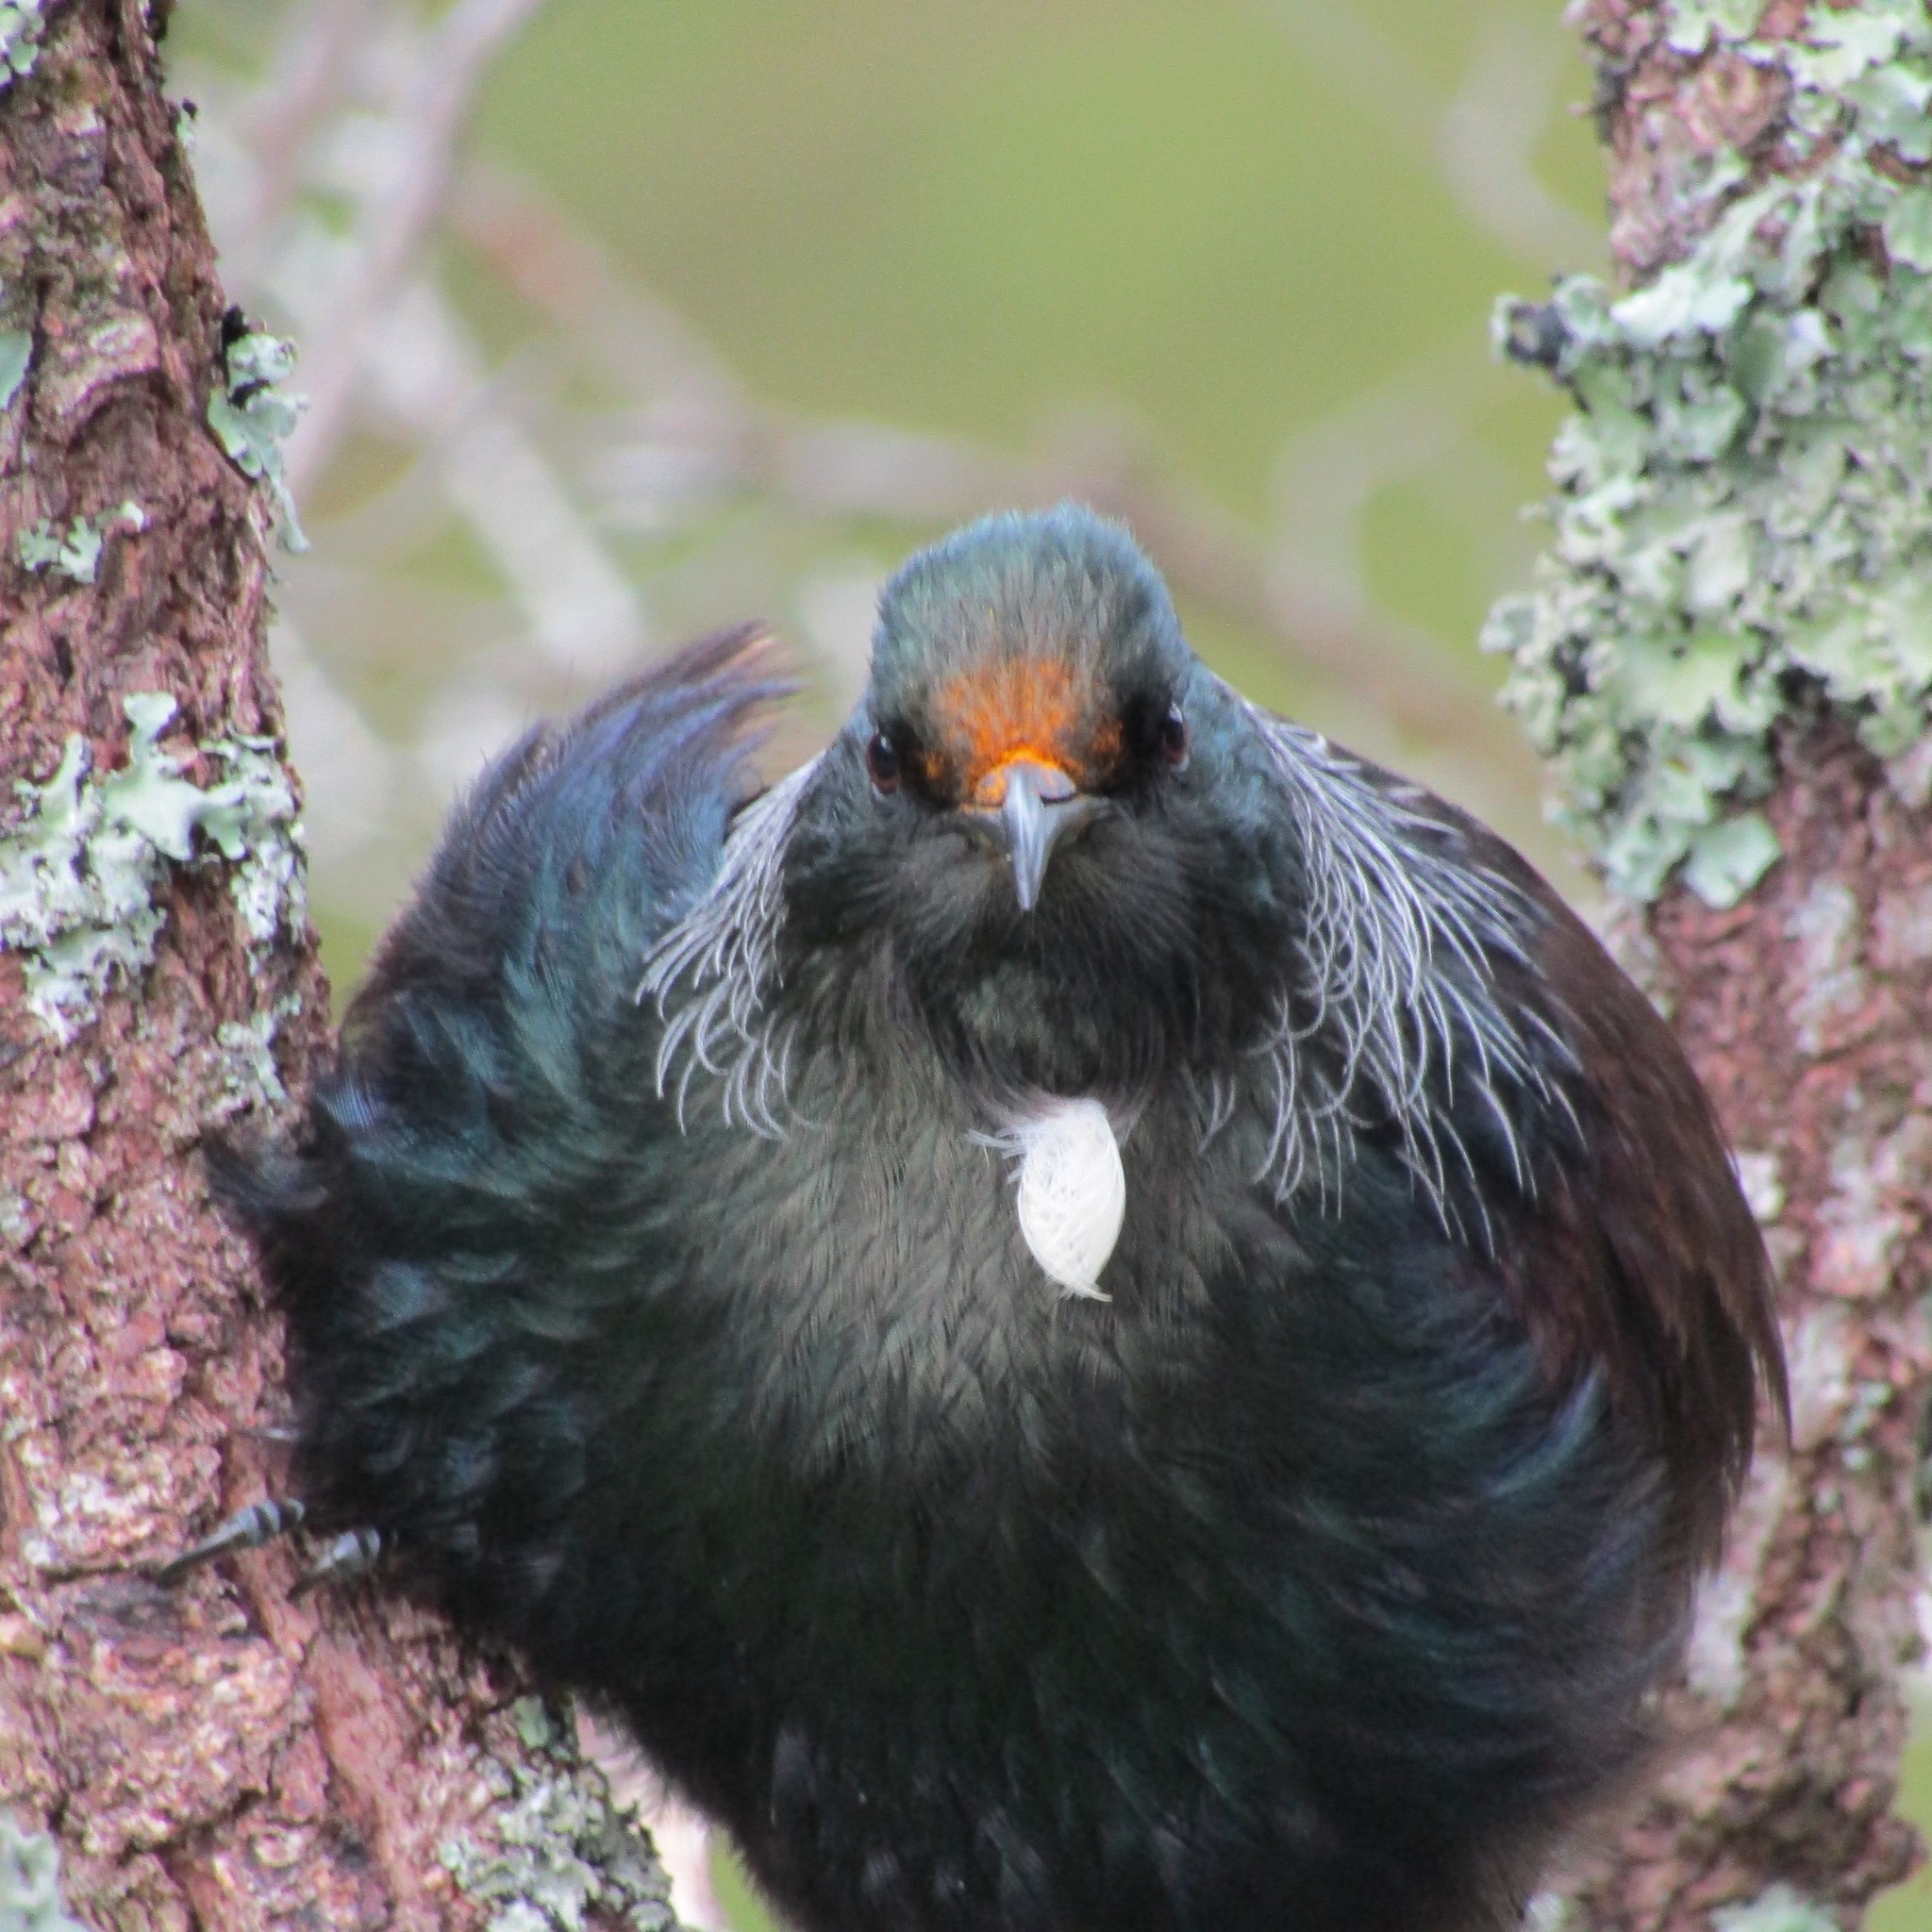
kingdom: Animalia
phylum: Chordata
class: Aves
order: Passeriformes
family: Meliphagidae
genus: Prosthemadera
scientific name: Prosthemadera novaeseelandiae
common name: Tui
